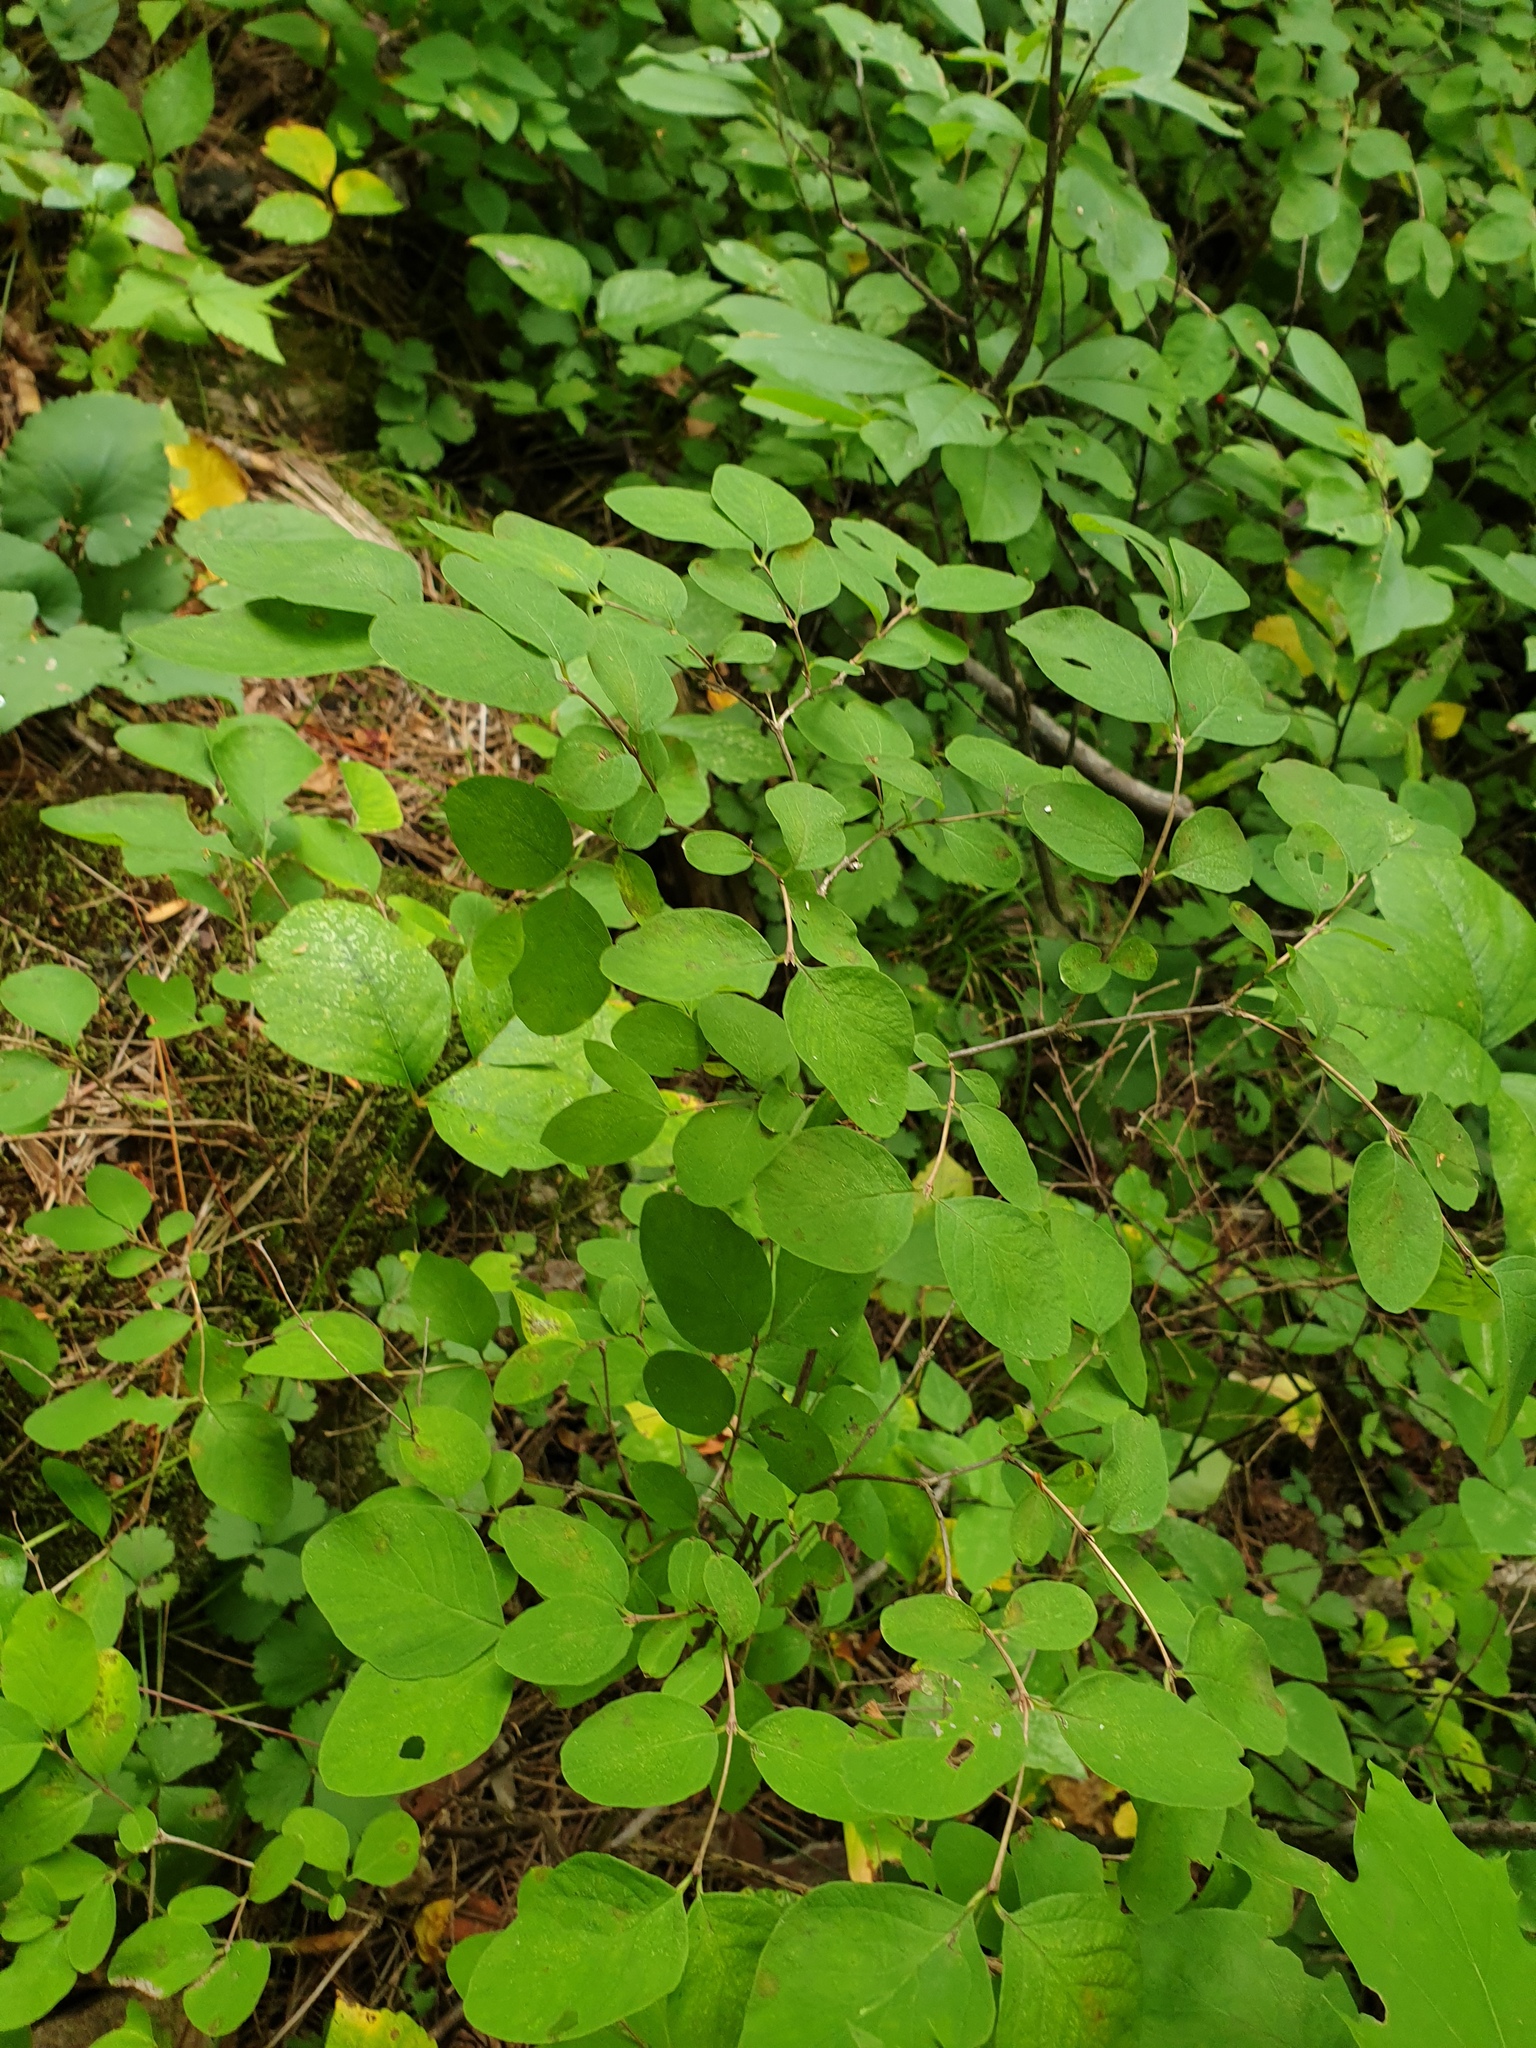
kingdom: Plantae
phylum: Tracheophyta
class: Magnoliopsida
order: Dipsacales
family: Caprifoliaceae
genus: Symphoricarpos
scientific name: Symphoricarpos albus
